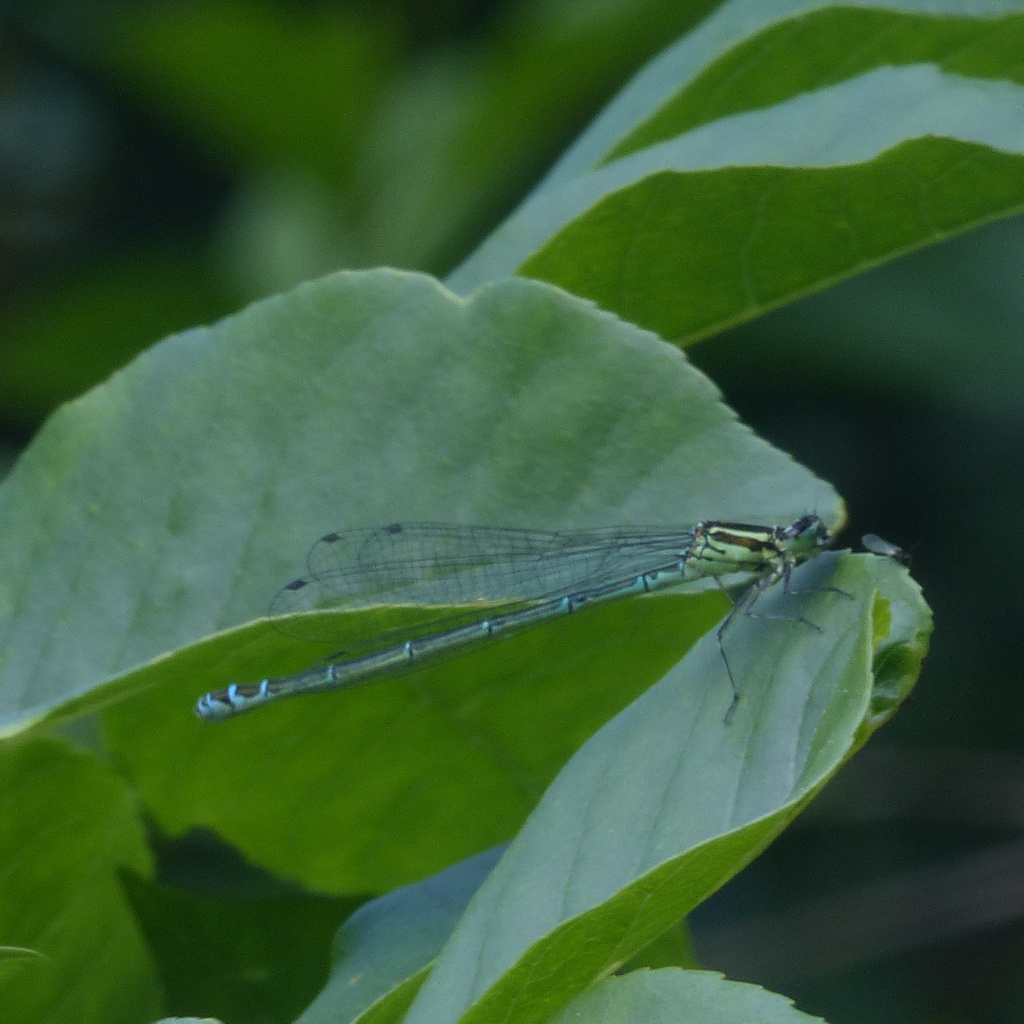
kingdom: Animalia
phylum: Arthropoda
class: Insecta
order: Odonata
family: Coenagrionidae
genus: Coenagrion
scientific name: Coenagrion puella
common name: Azure damselfly
